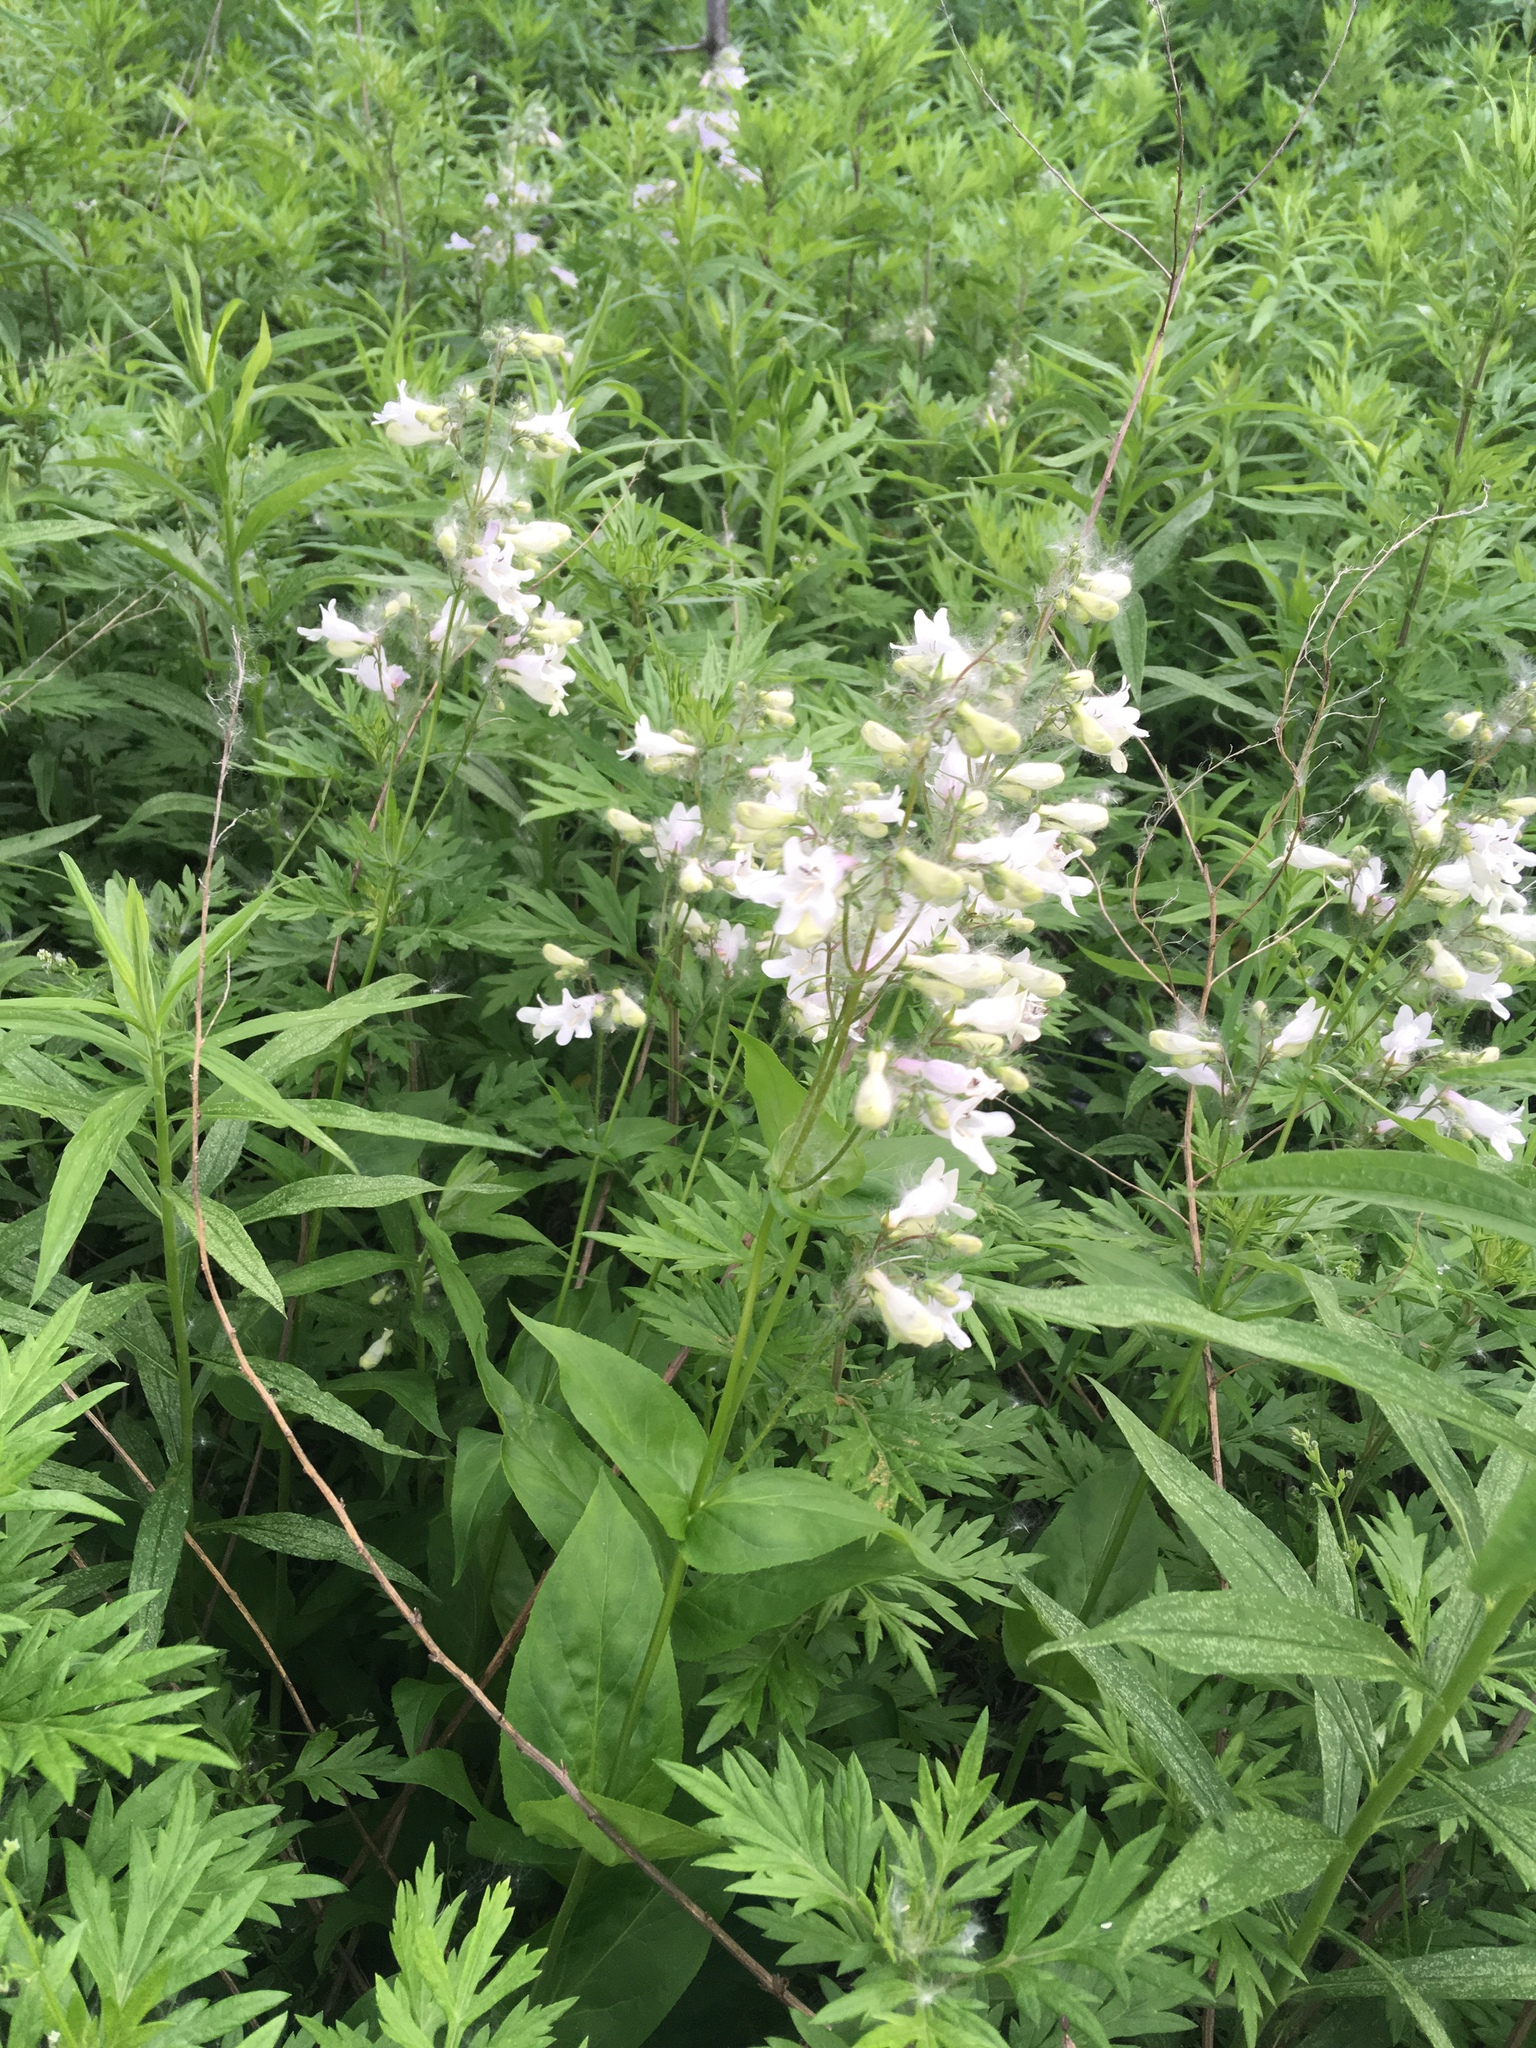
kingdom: Plantae
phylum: Tracheophyta
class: Magnoliopsida
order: Lamiales
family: Plantaginaceae
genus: Penstemon
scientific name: Penstemon digitalis
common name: Foxglove beardtongue
